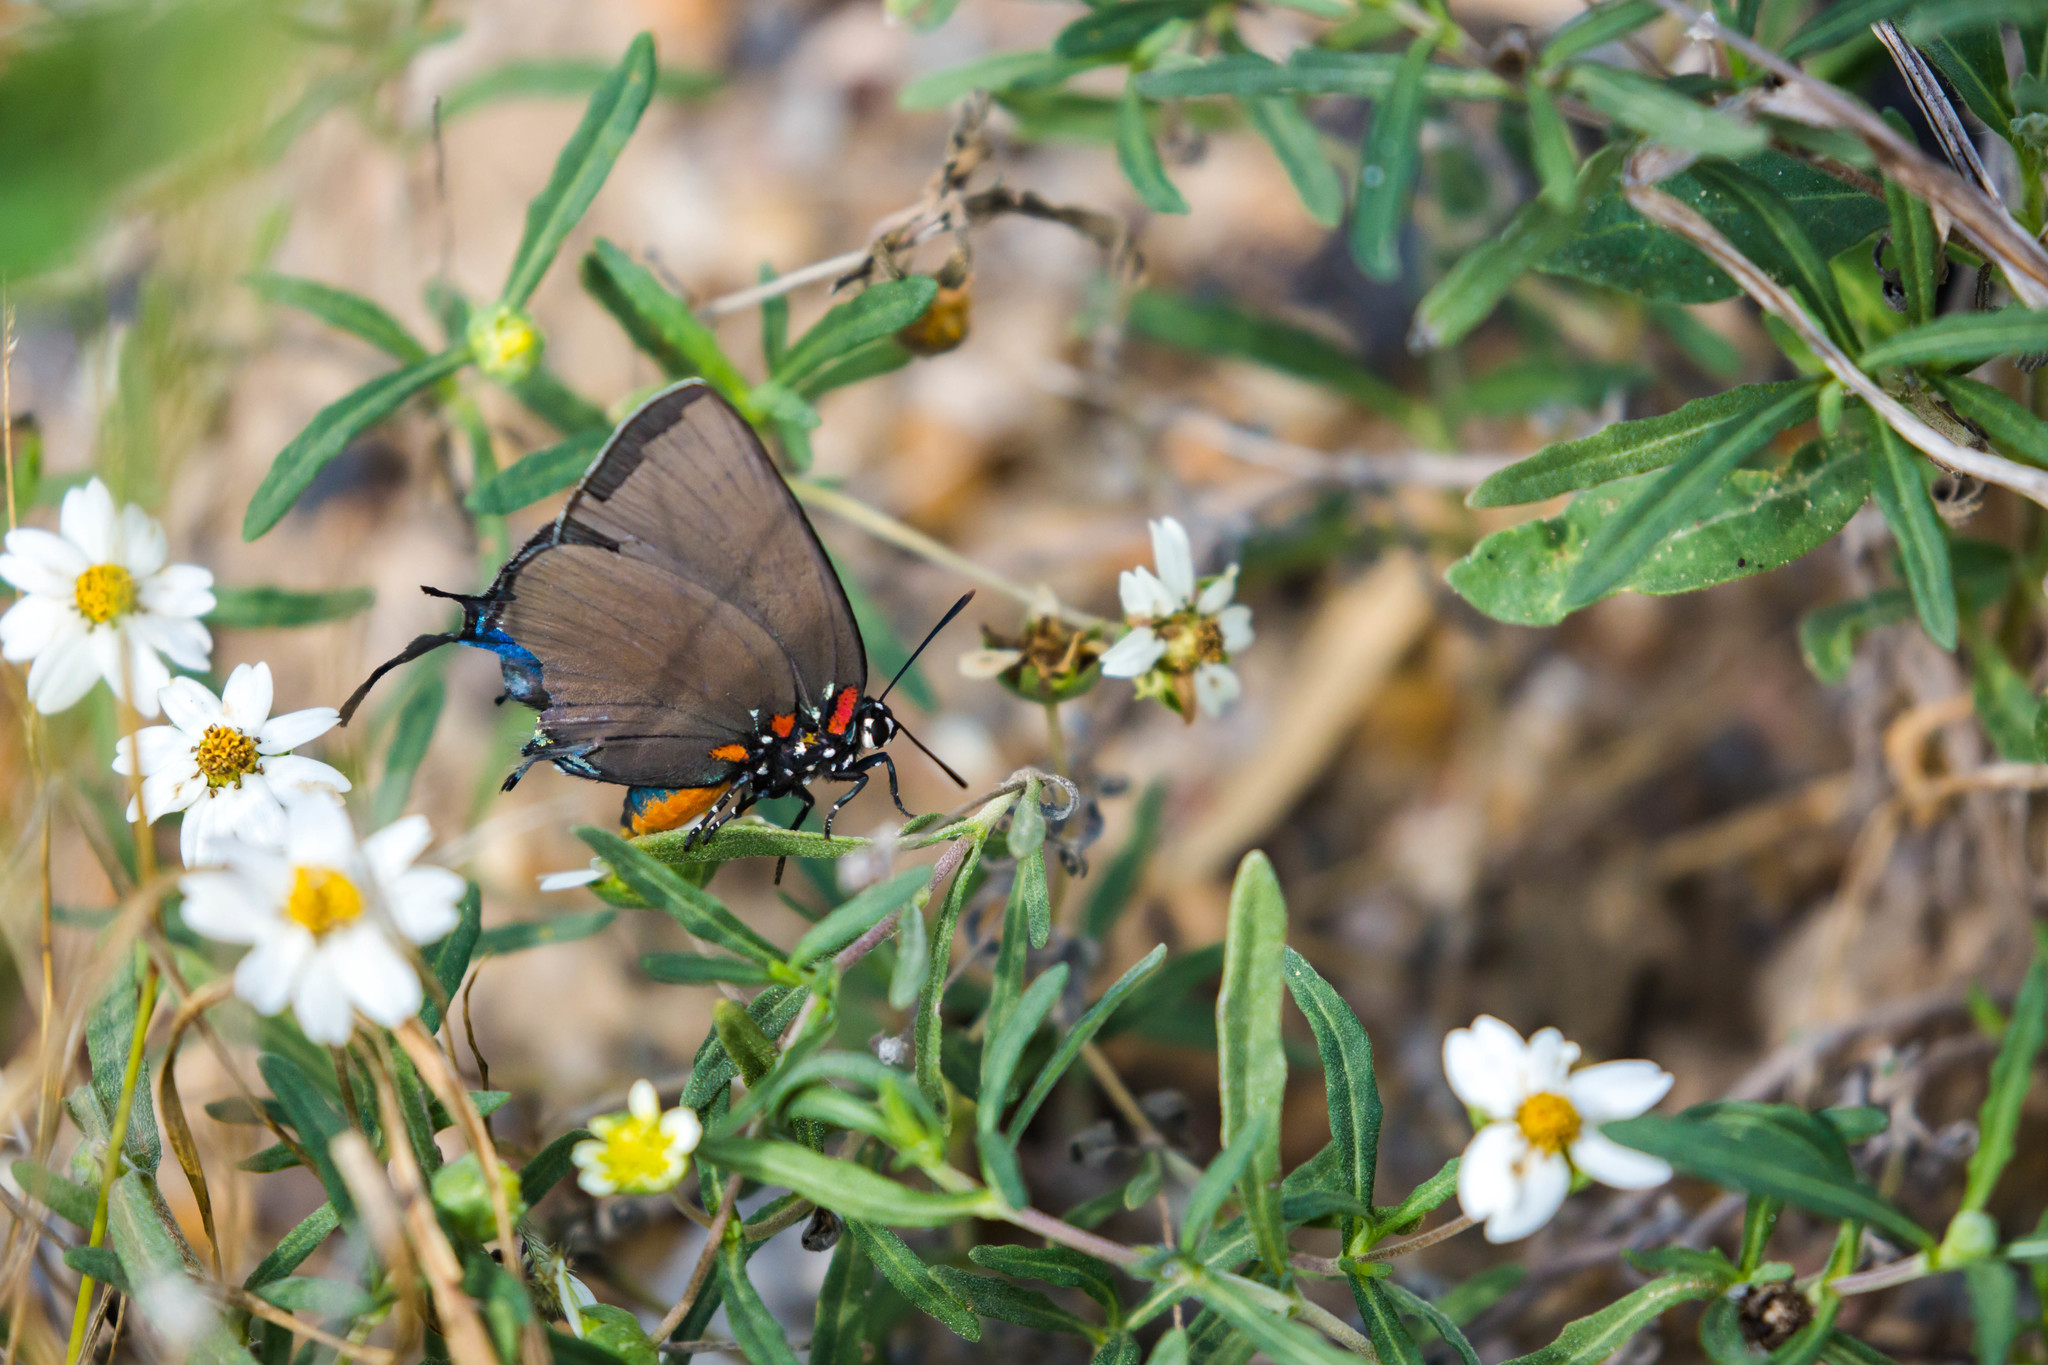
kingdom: Animalia
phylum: Arthropoda
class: Insecta
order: Lepidoptera
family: Lycaenidae
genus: Atlides
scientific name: Atlides halesus
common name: Great purple hairstreak
